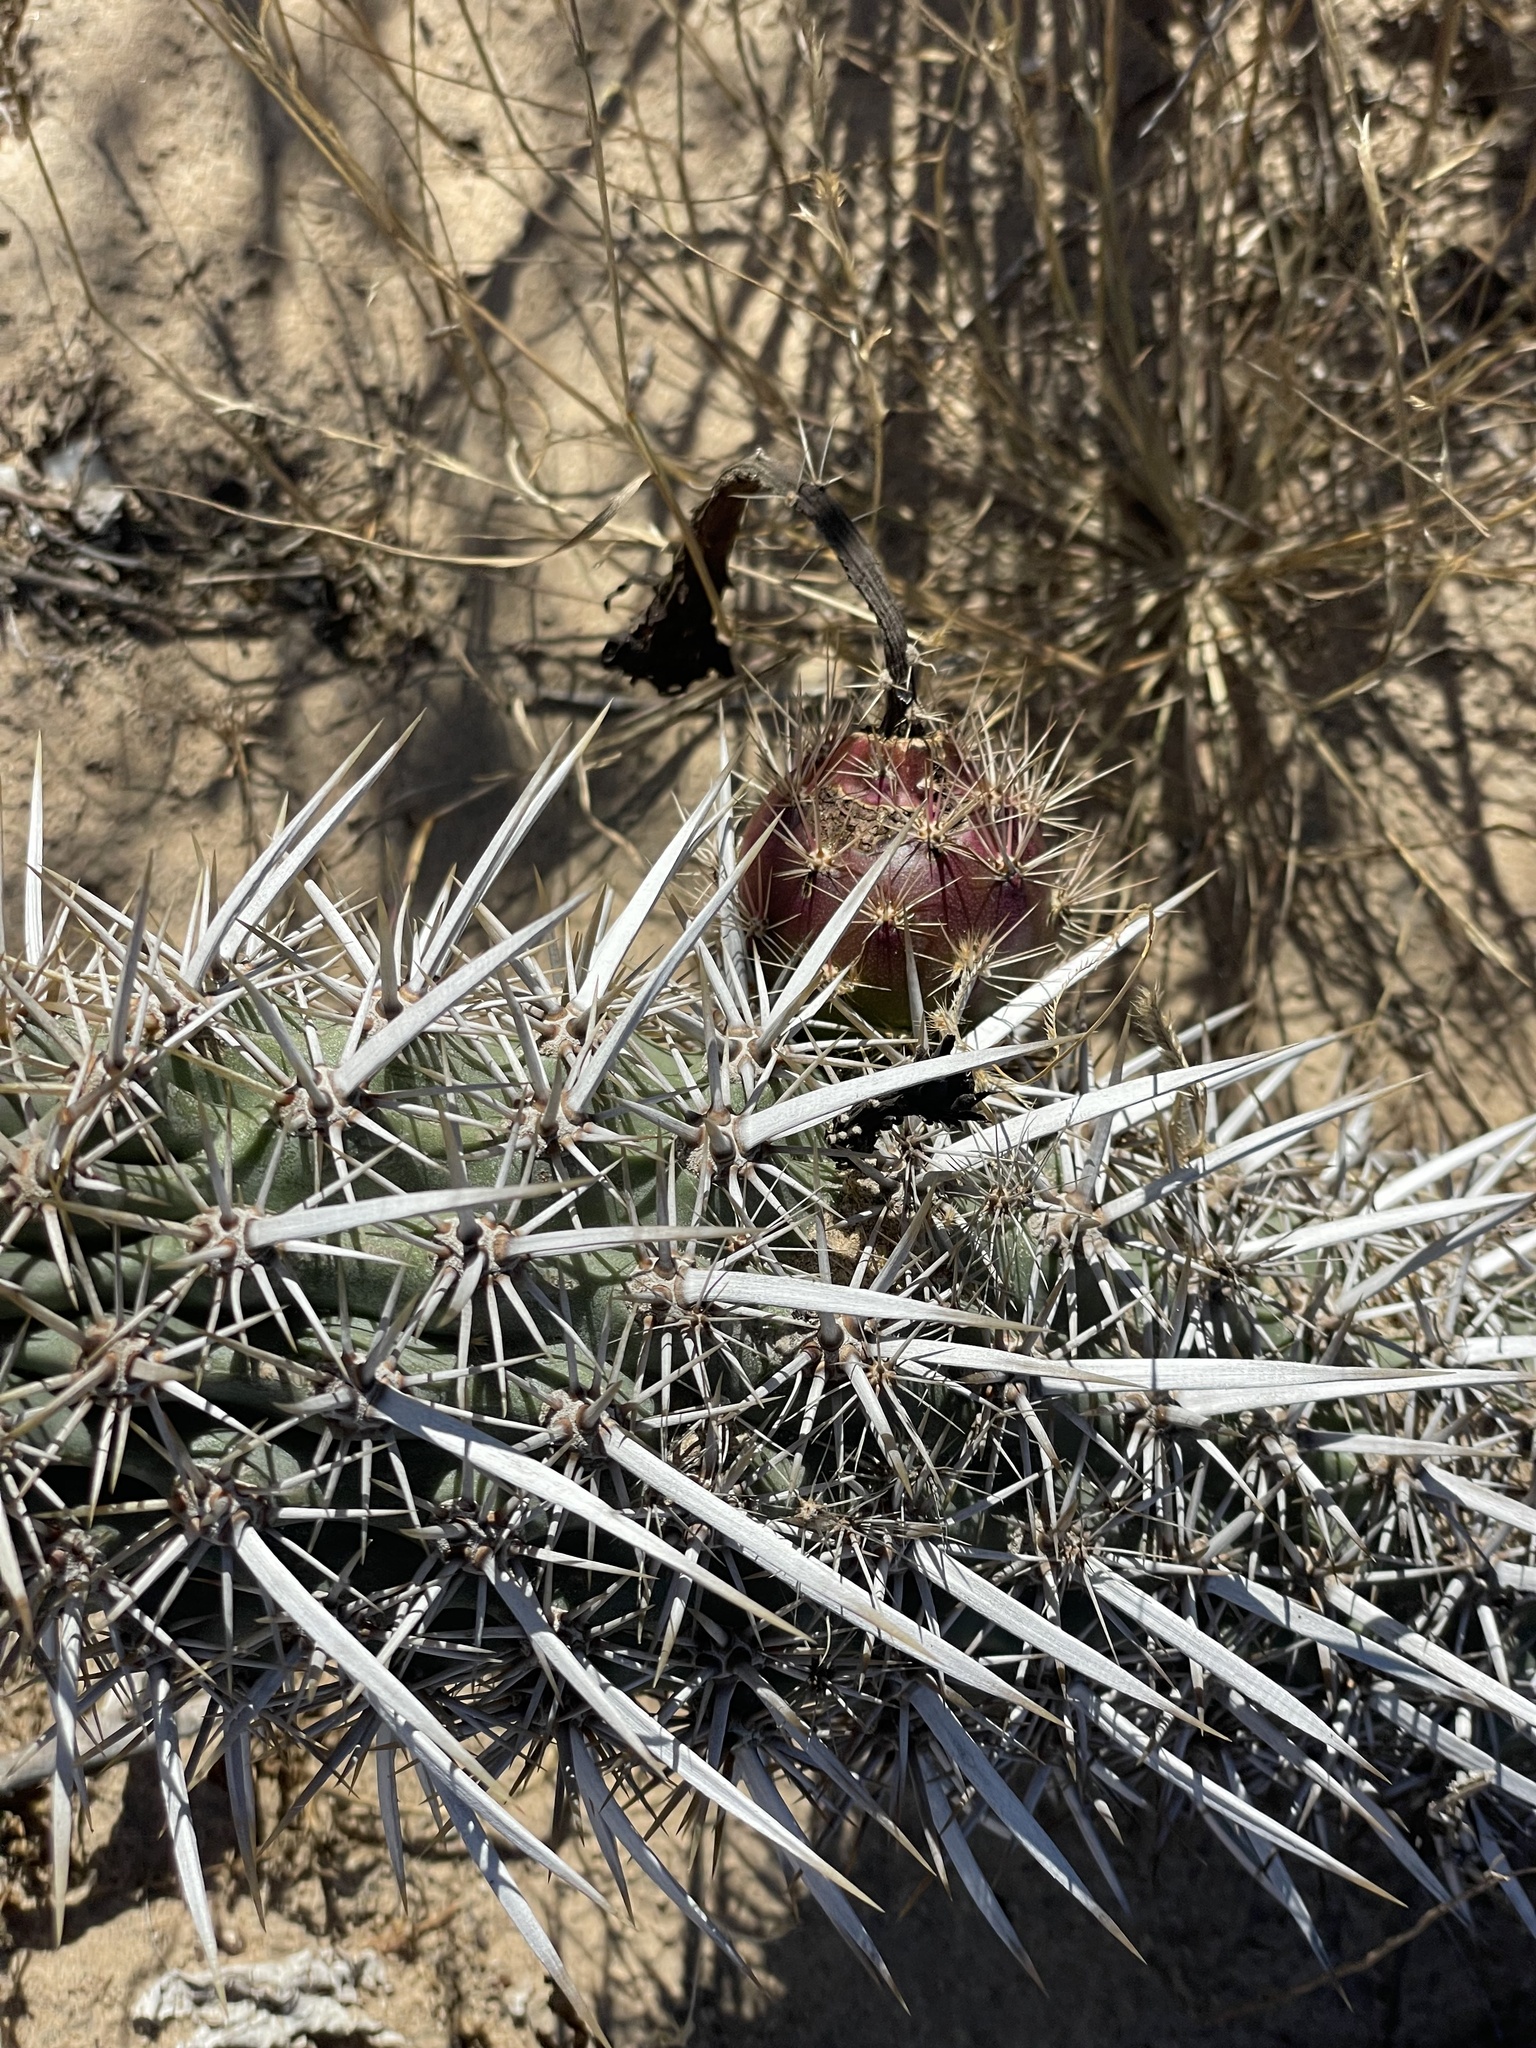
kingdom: Plantae
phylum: Tracheophyta
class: Magnoliopsida
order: Caryophyllales
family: Cactaceae
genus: Stenocereus
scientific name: Stenocereus eruca
